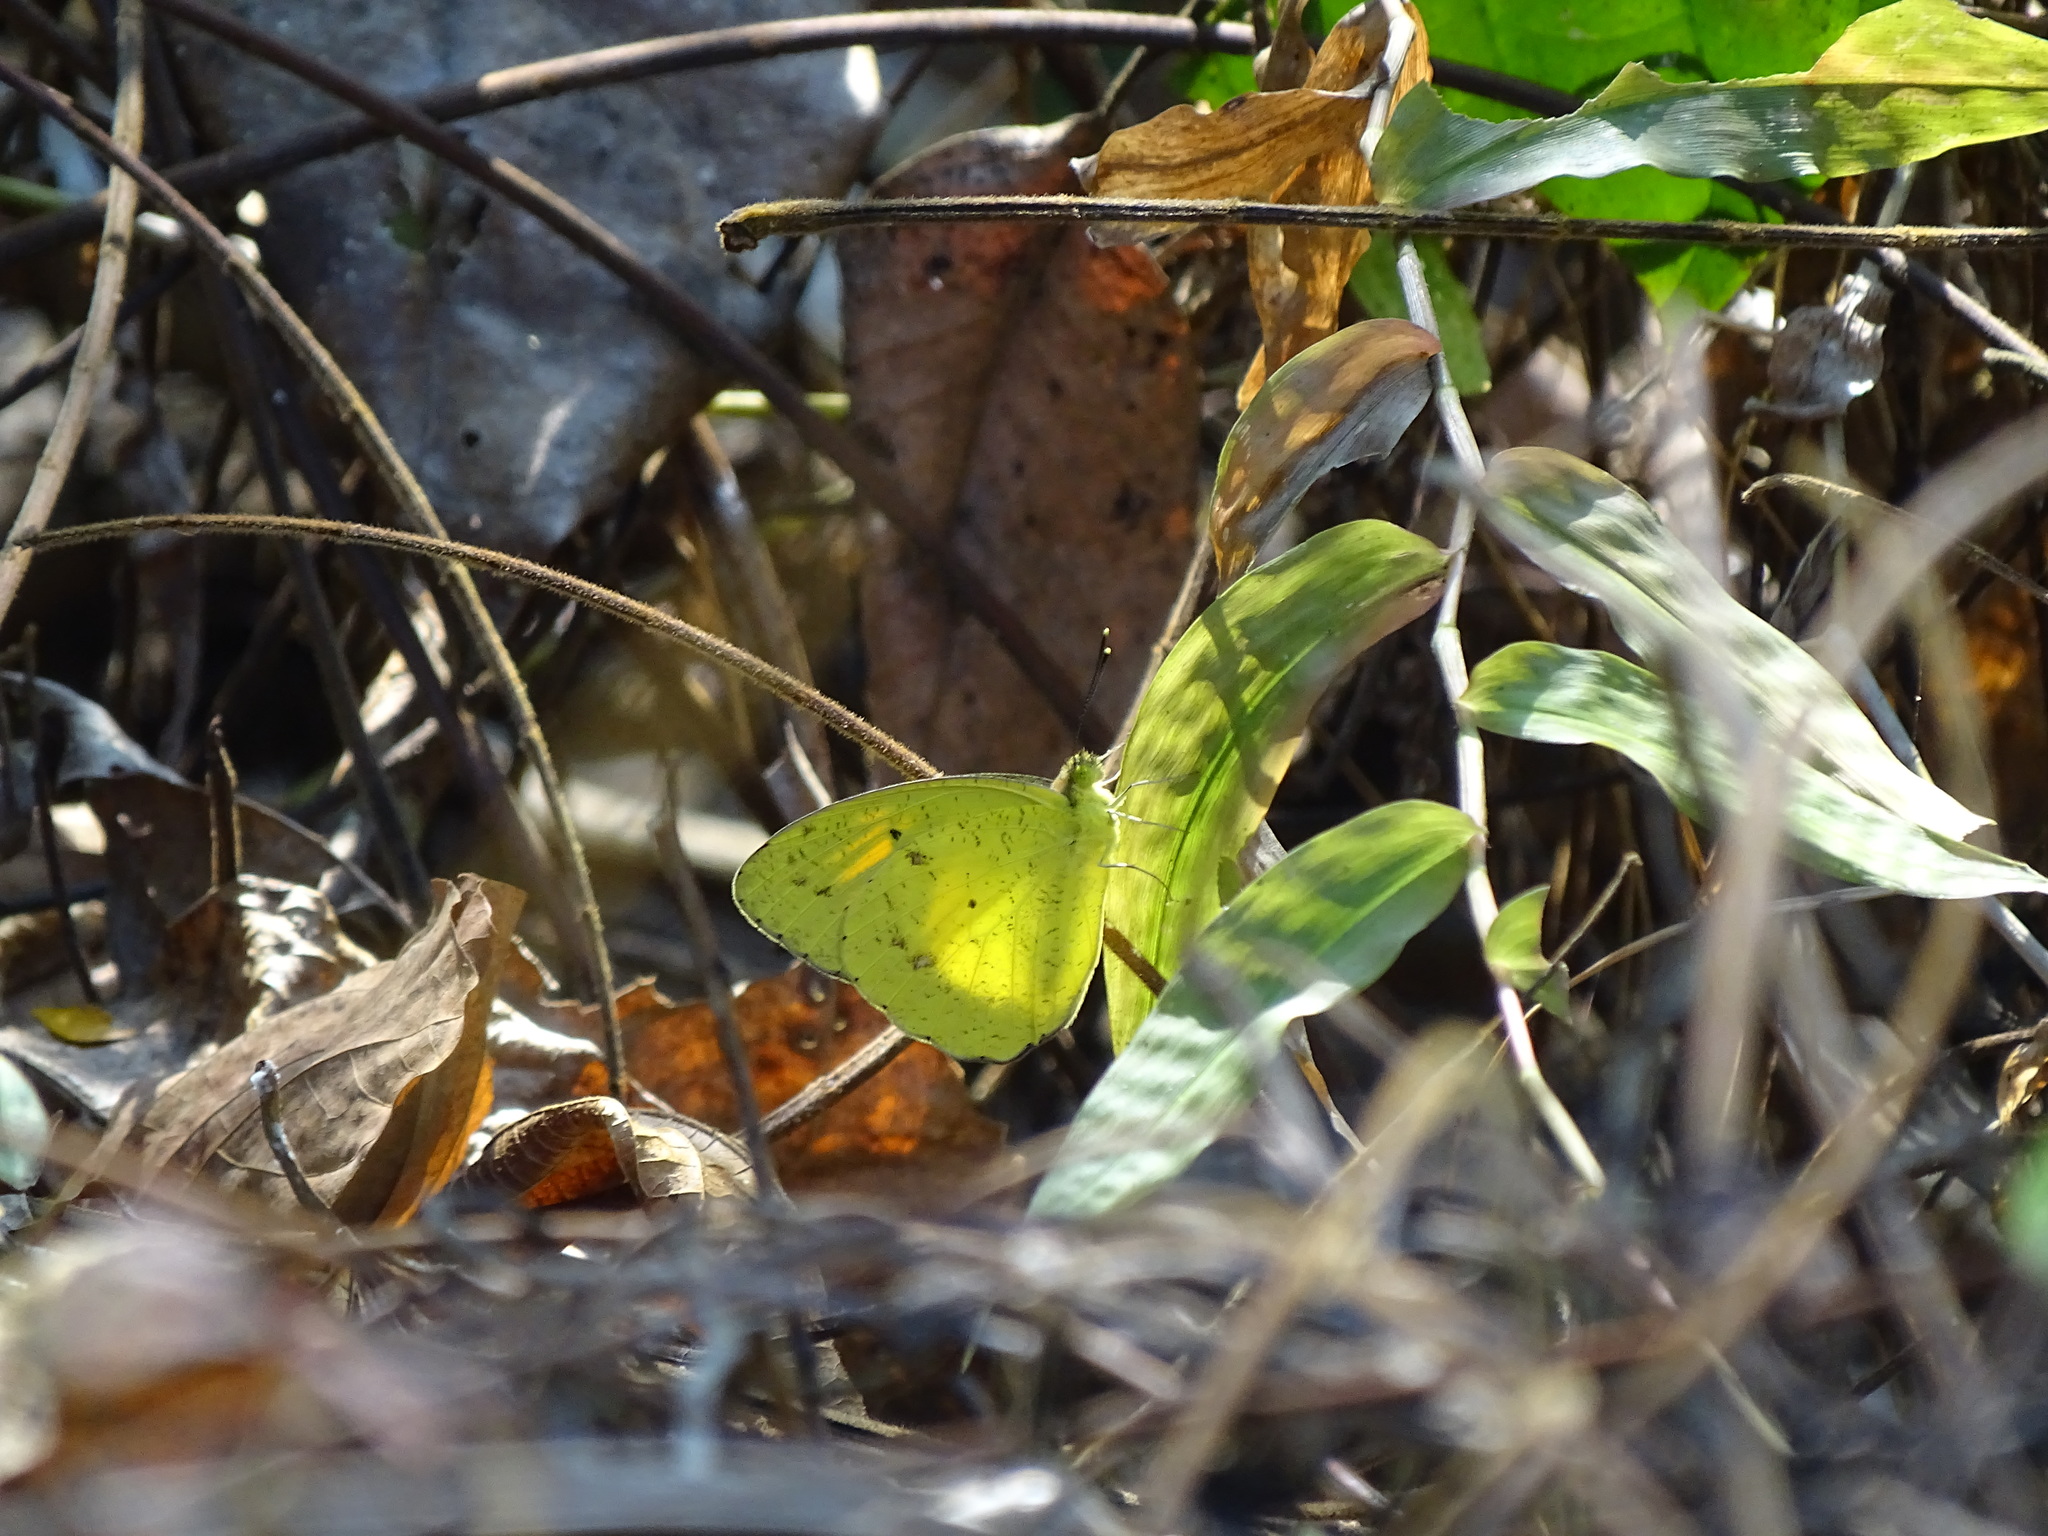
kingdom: Animalia
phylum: Arthropoda
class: Insecta
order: Lepidoptera
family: Pieridae
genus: Ixias
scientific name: Ixias pyrene
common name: Yellow orange tip
